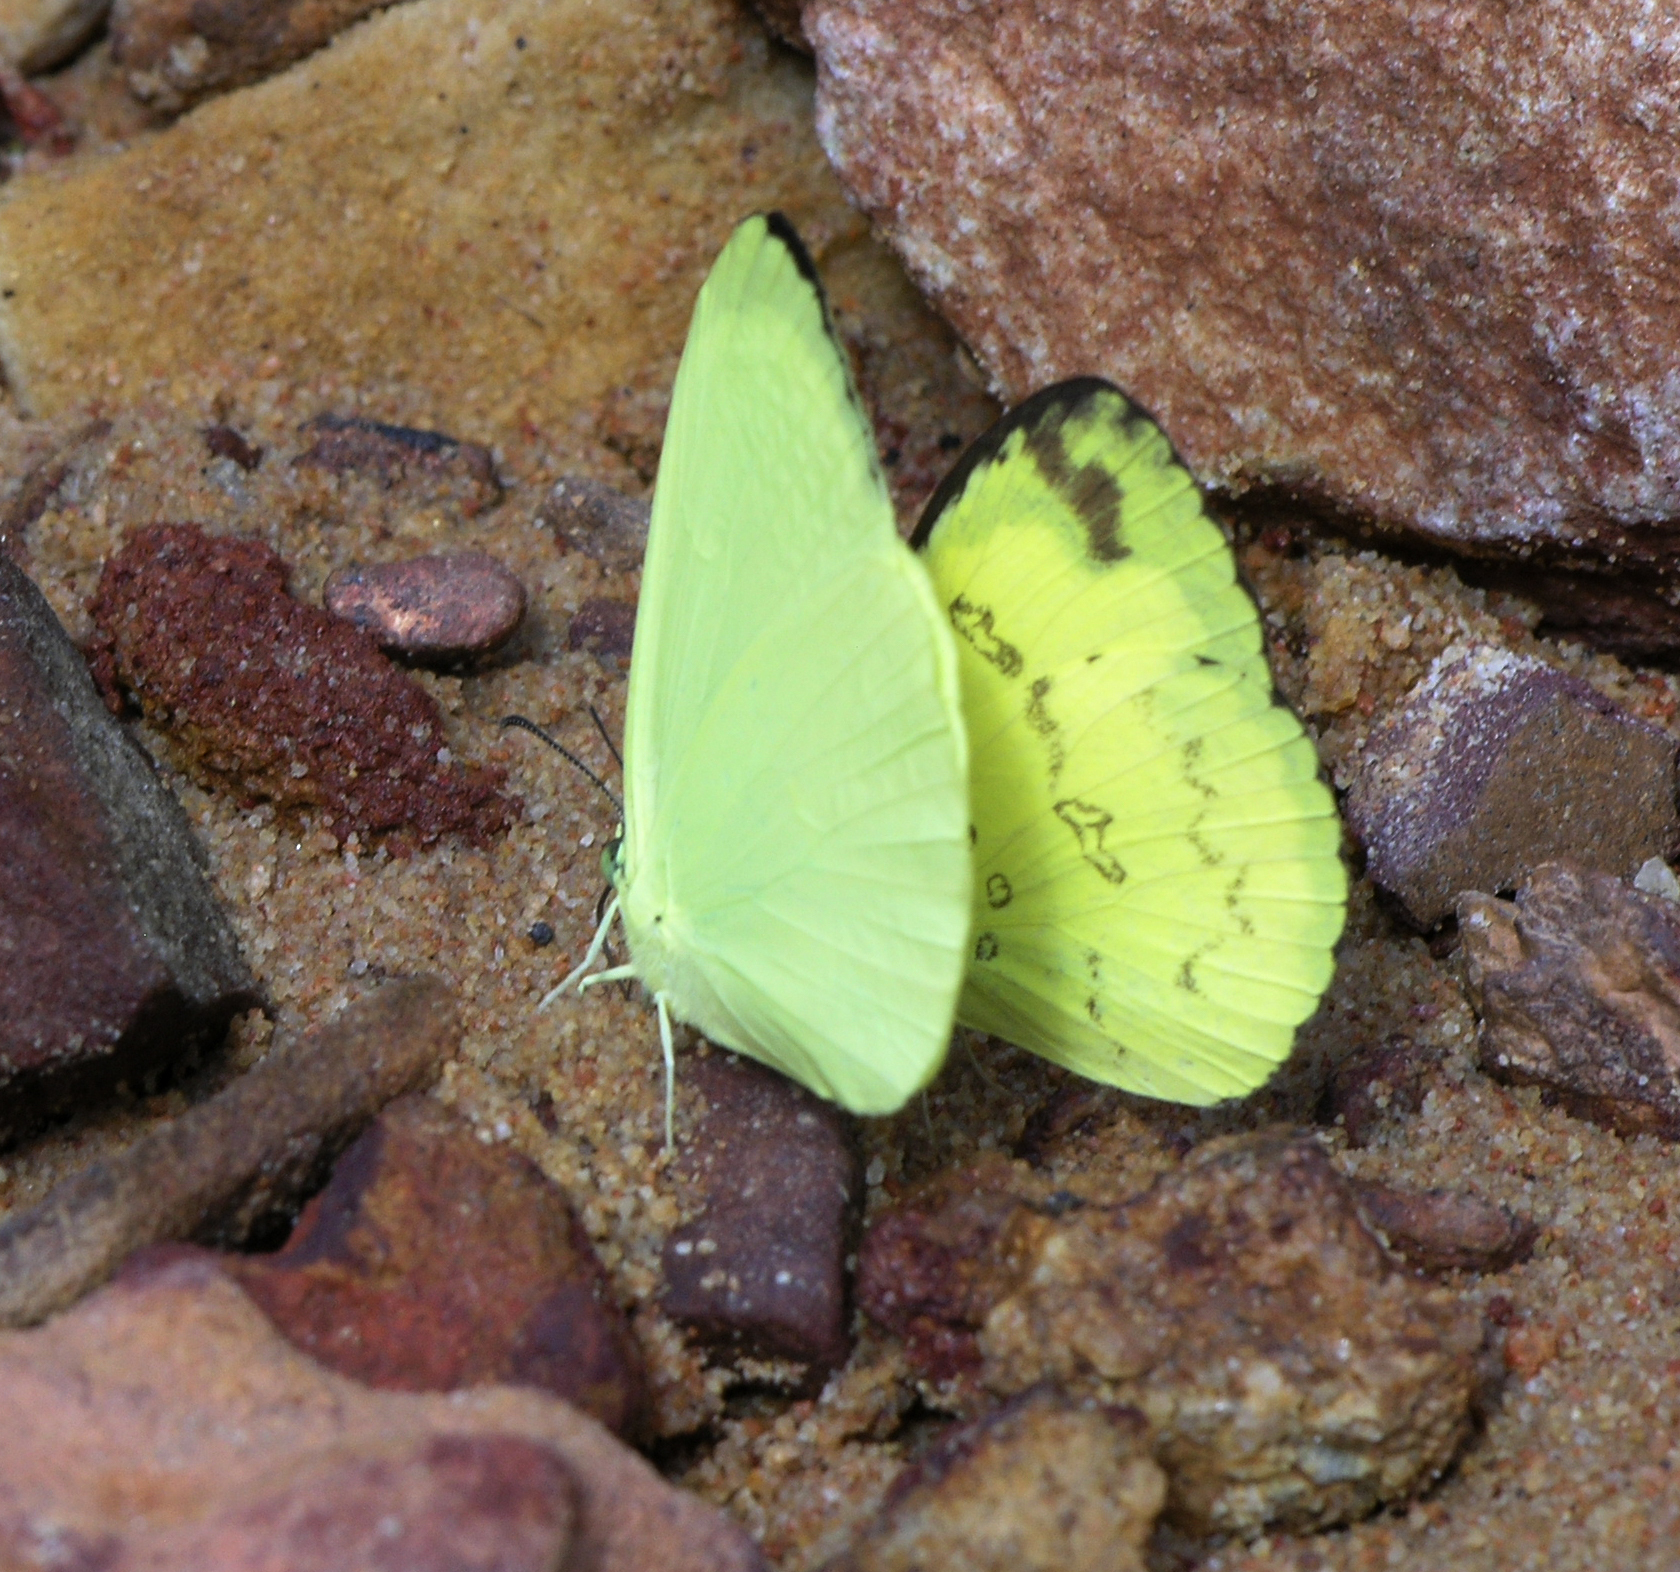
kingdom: Animalia
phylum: Arthropoda
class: Insecta
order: Lepidoptera
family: Pieridae
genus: Eurema
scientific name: Eurema andersoni
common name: One-spot yellow grass
